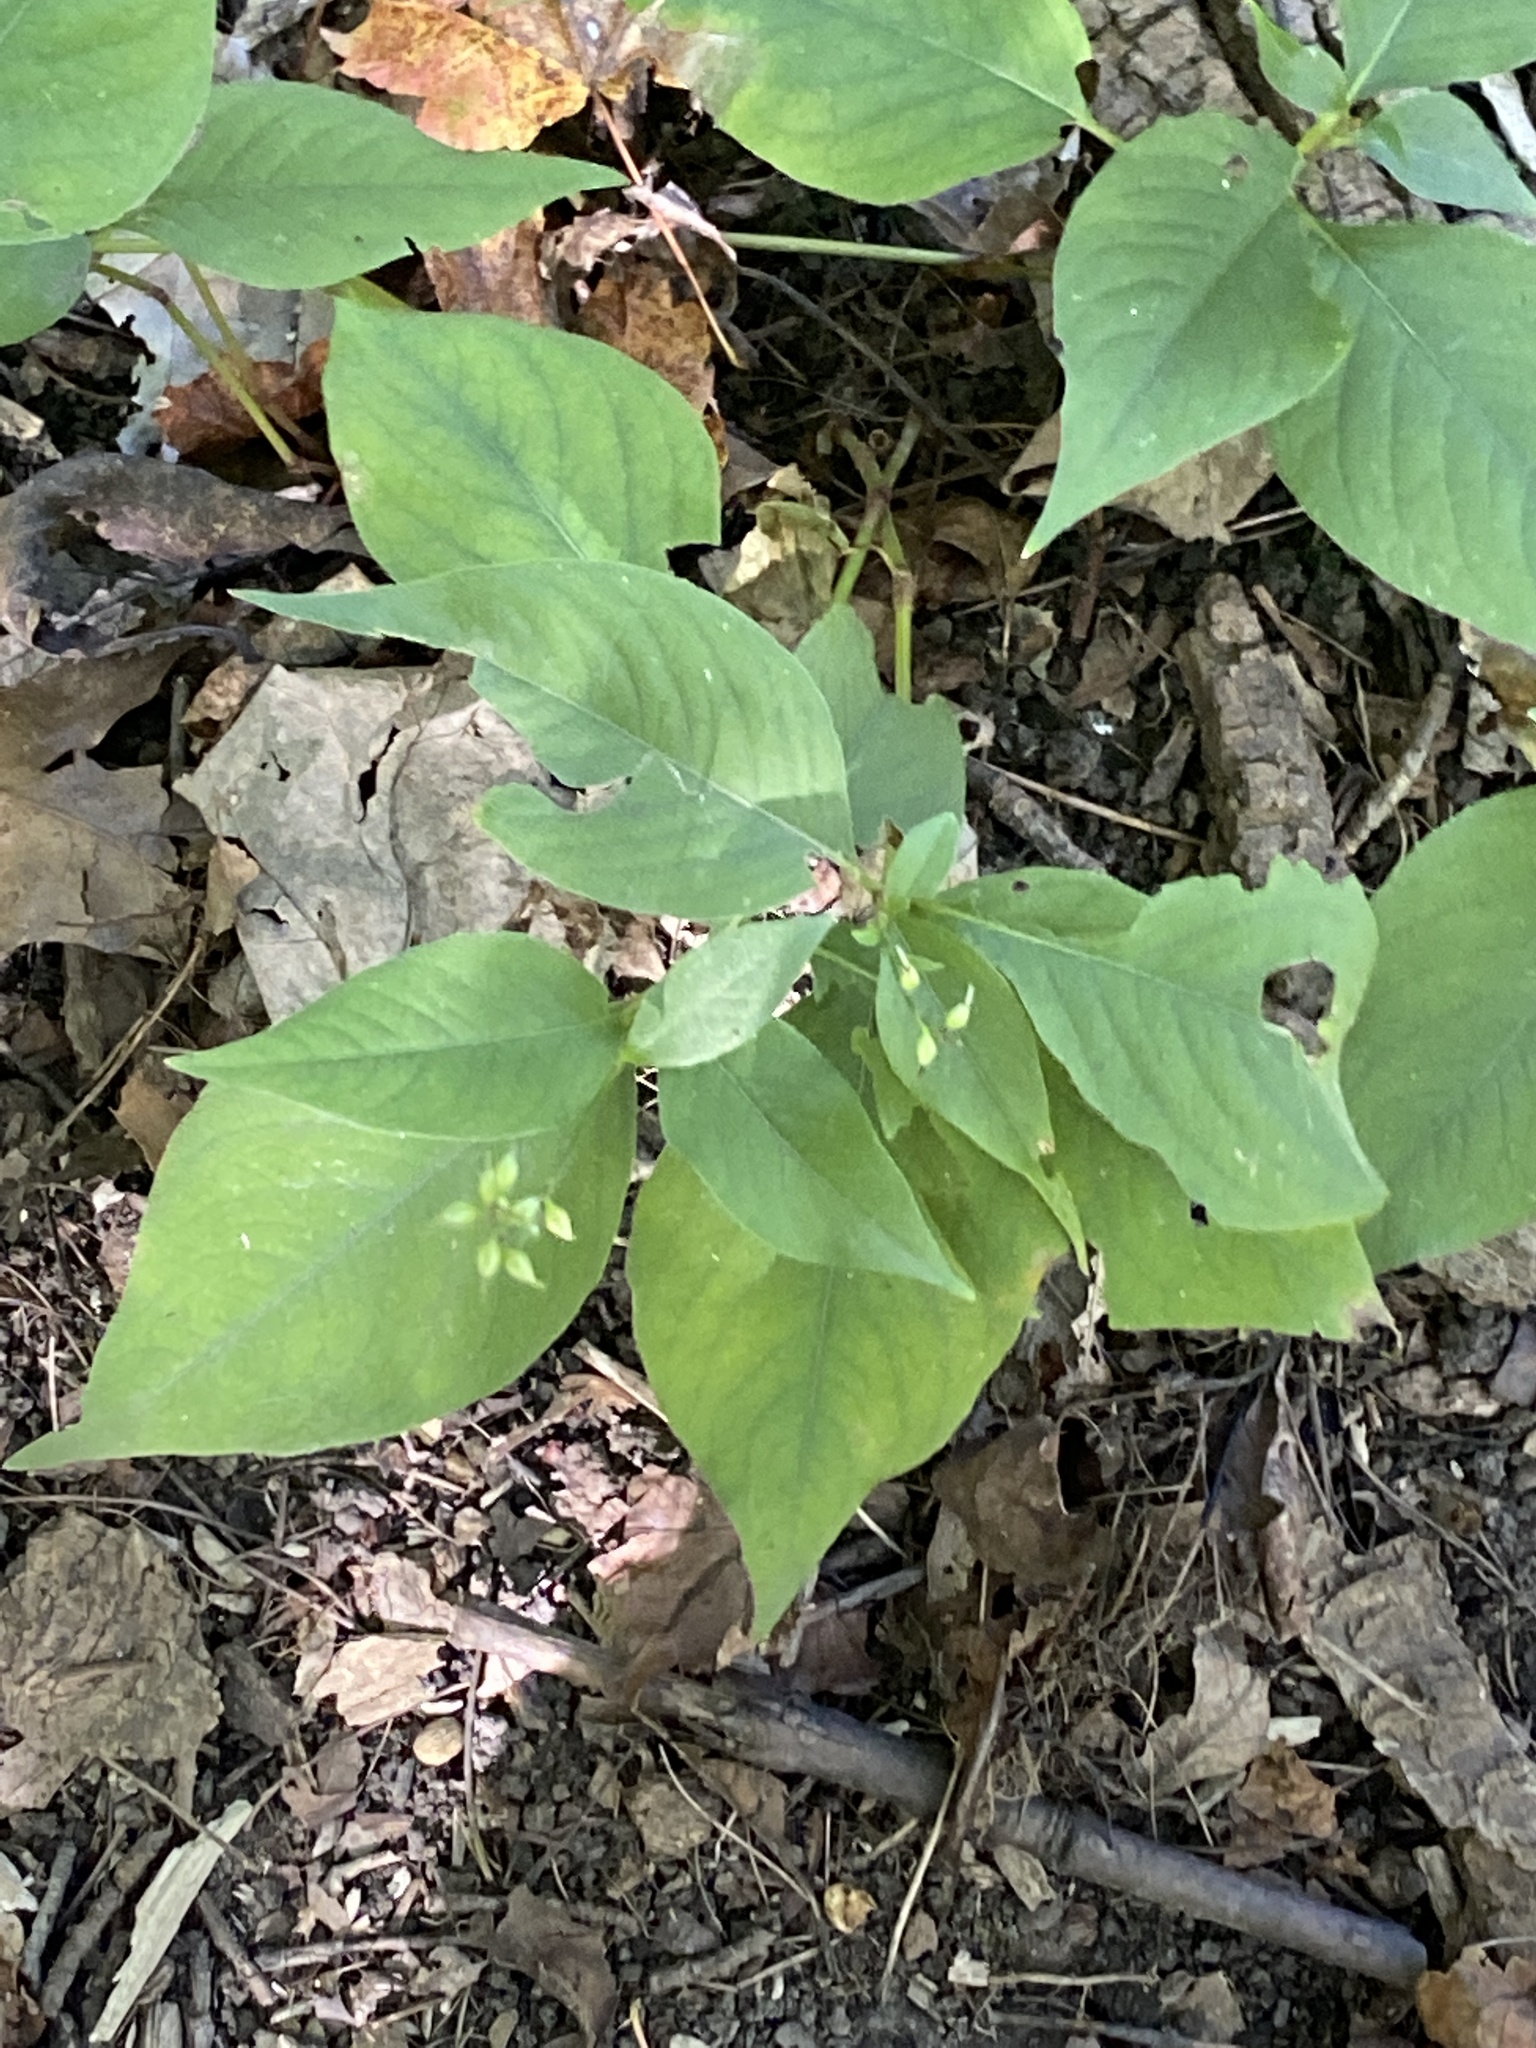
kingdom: Plantae
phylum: Tracheophyta
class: Magnoliopsida
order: Caryophyllales
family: Polygonaceae
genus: Persicaria
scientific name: Persicaria virginiana
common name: Jumpseed
